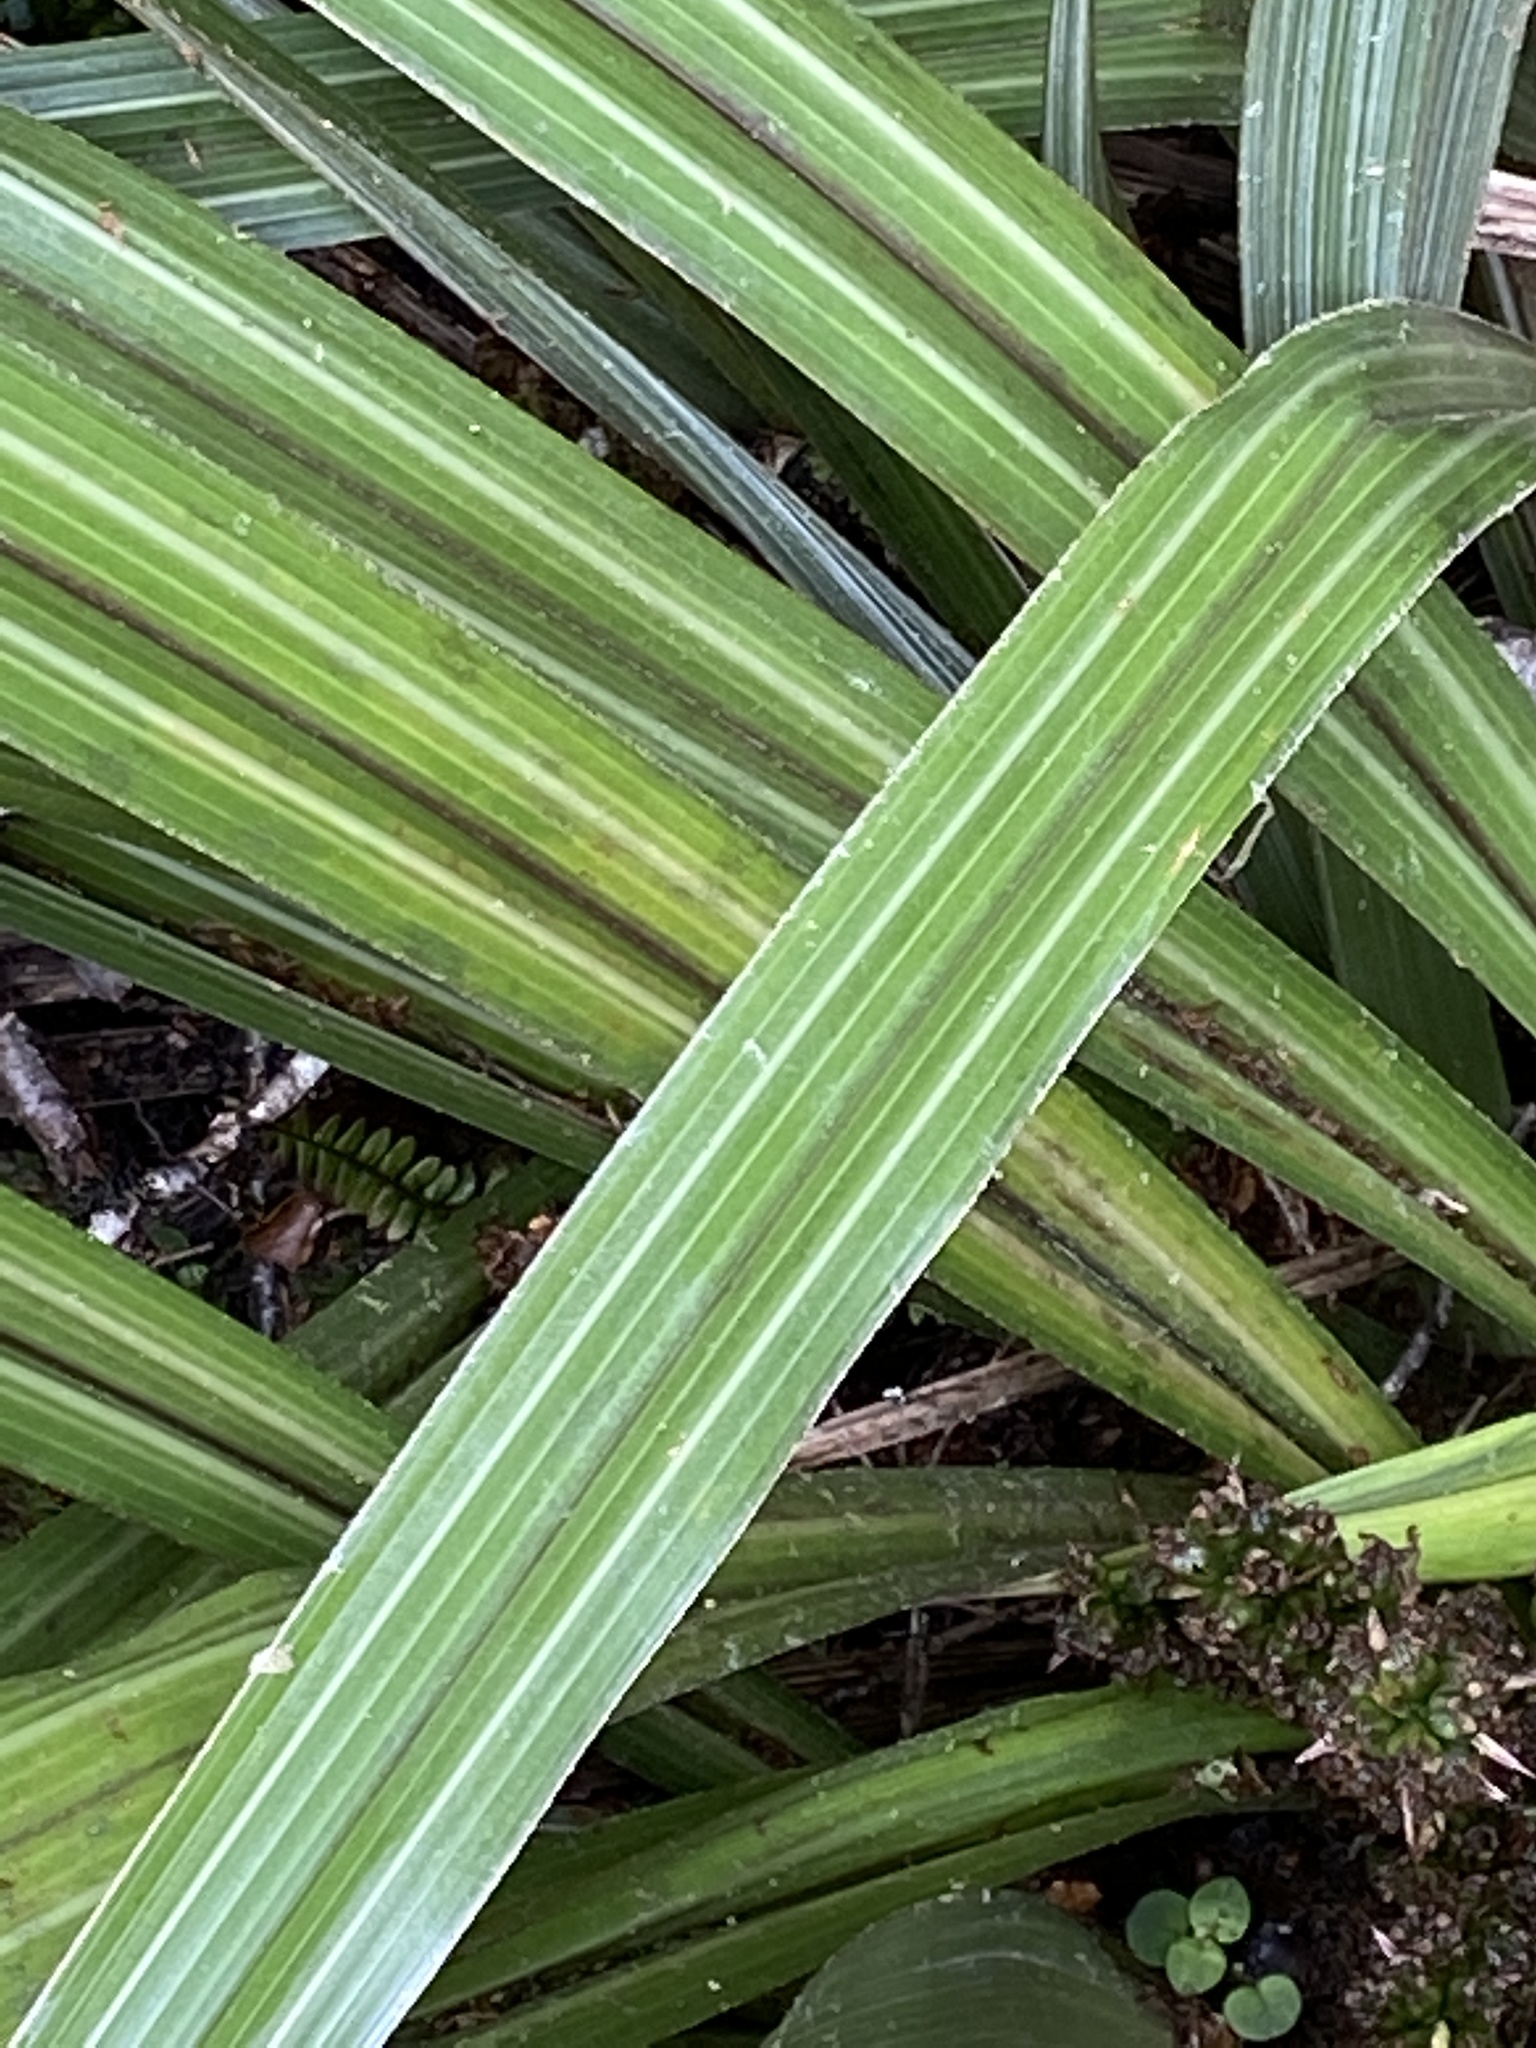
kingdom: Plantae
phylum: Tracheophyta
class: Liliopsida
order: Asparagales
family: Asteliaceae
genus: Astelia
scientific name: Astelia fragrans
